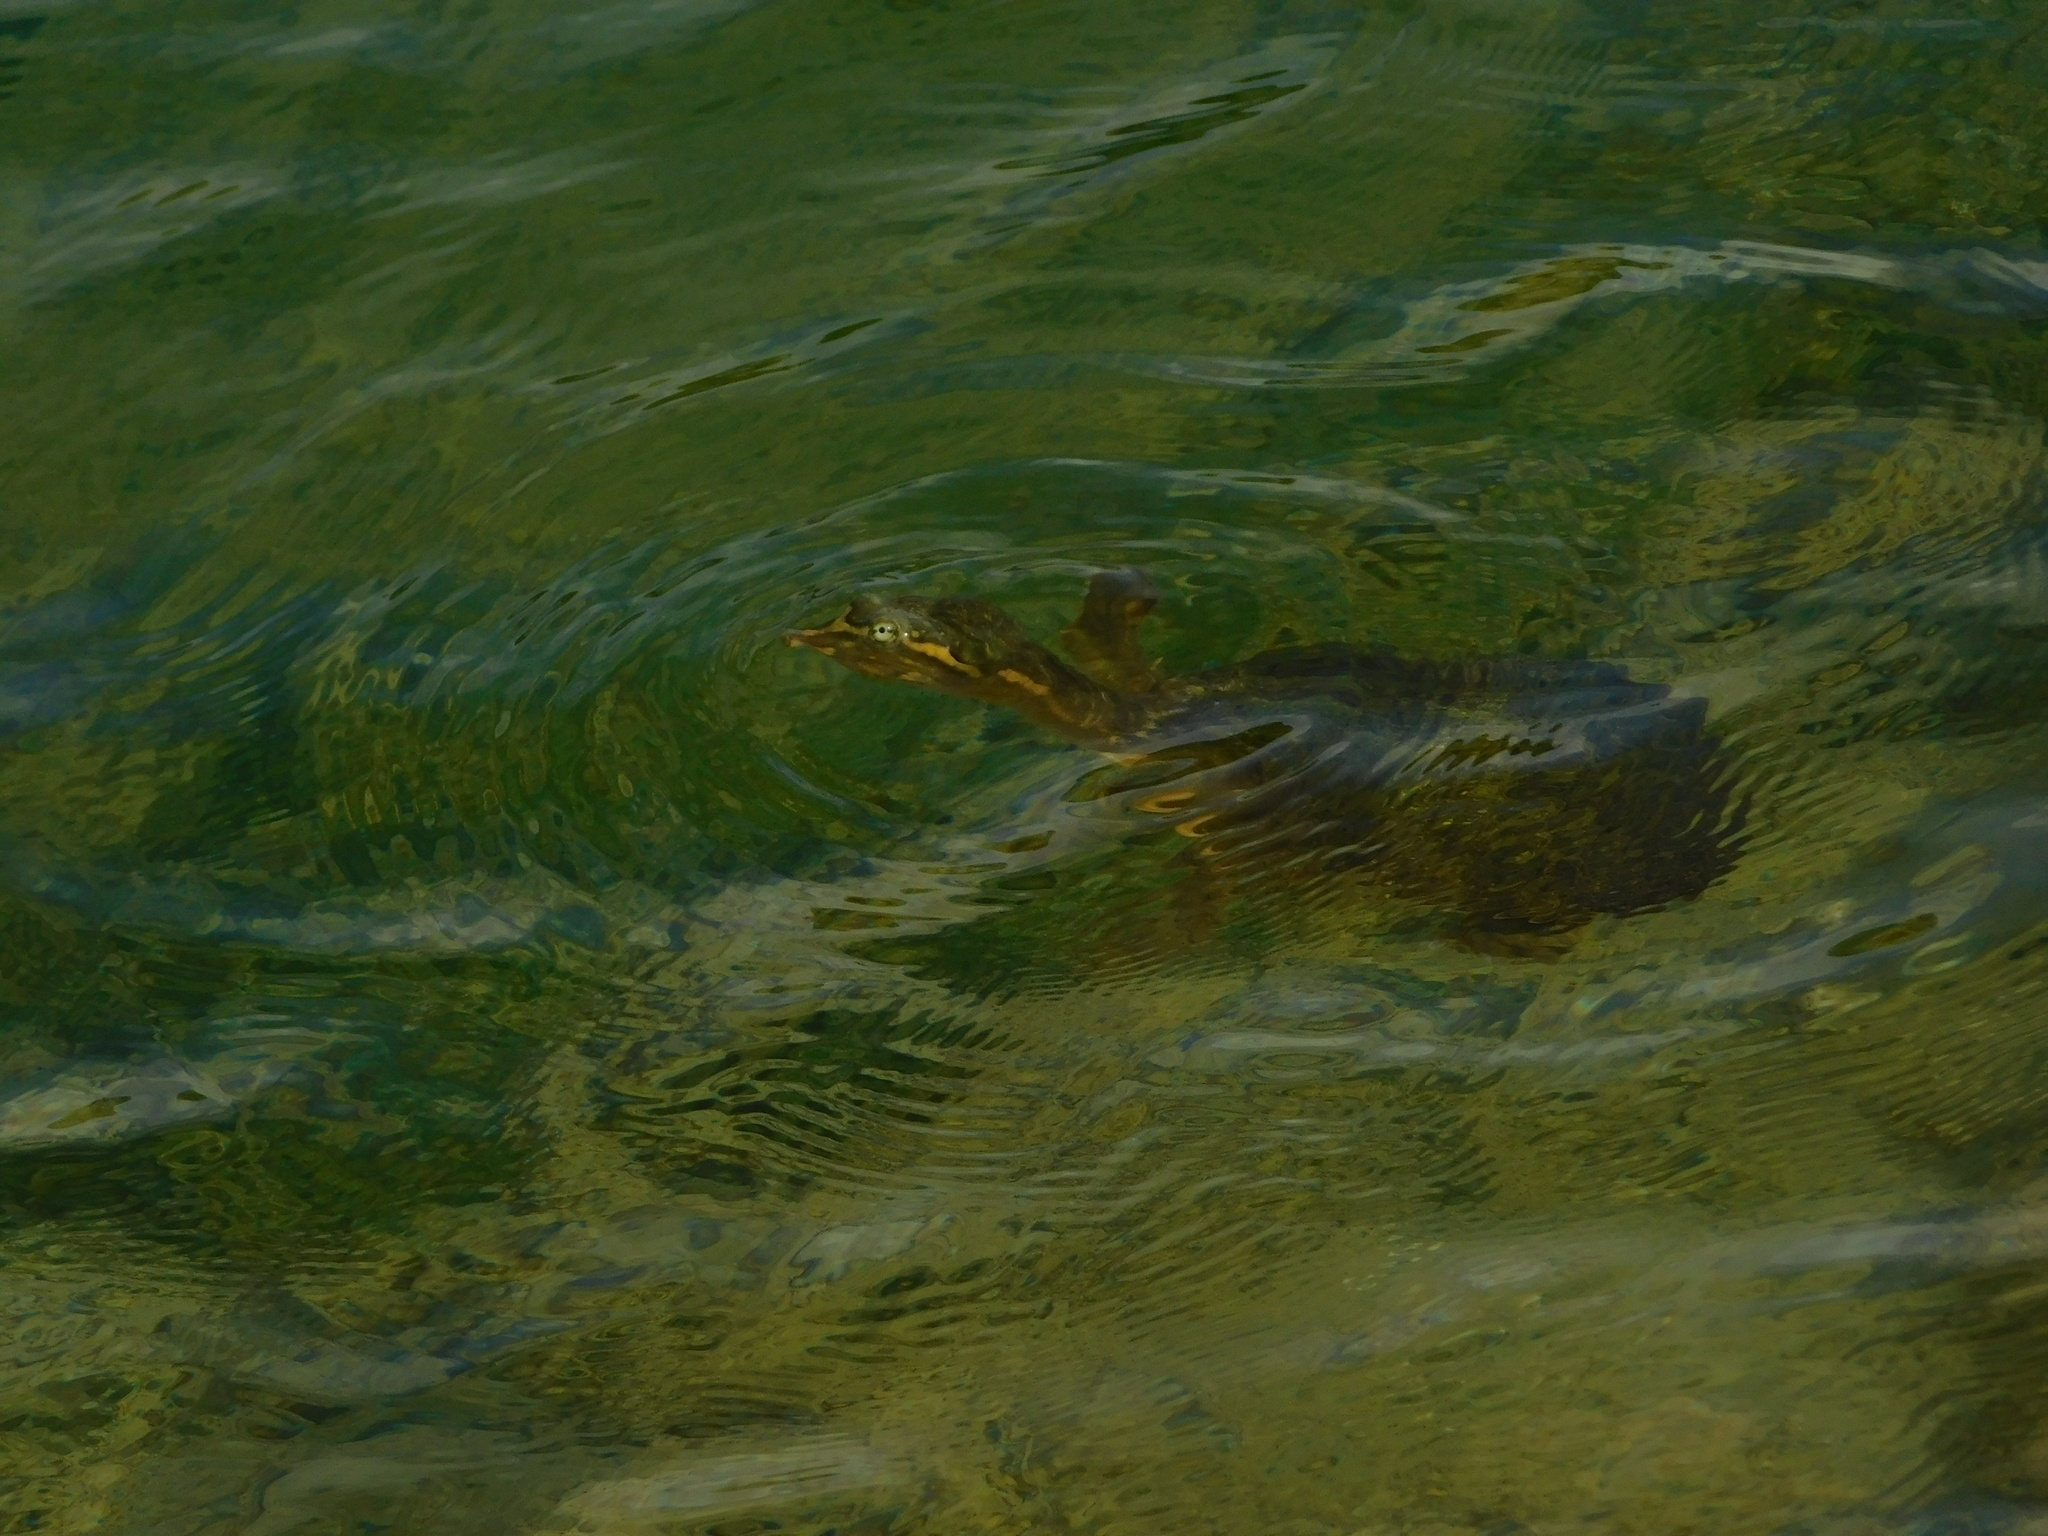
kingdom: Animalia
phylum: Chordata
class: Testudines
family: Trionychidae
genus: Apalone
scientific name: Apalone ferox
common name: Florida softshell turtle
